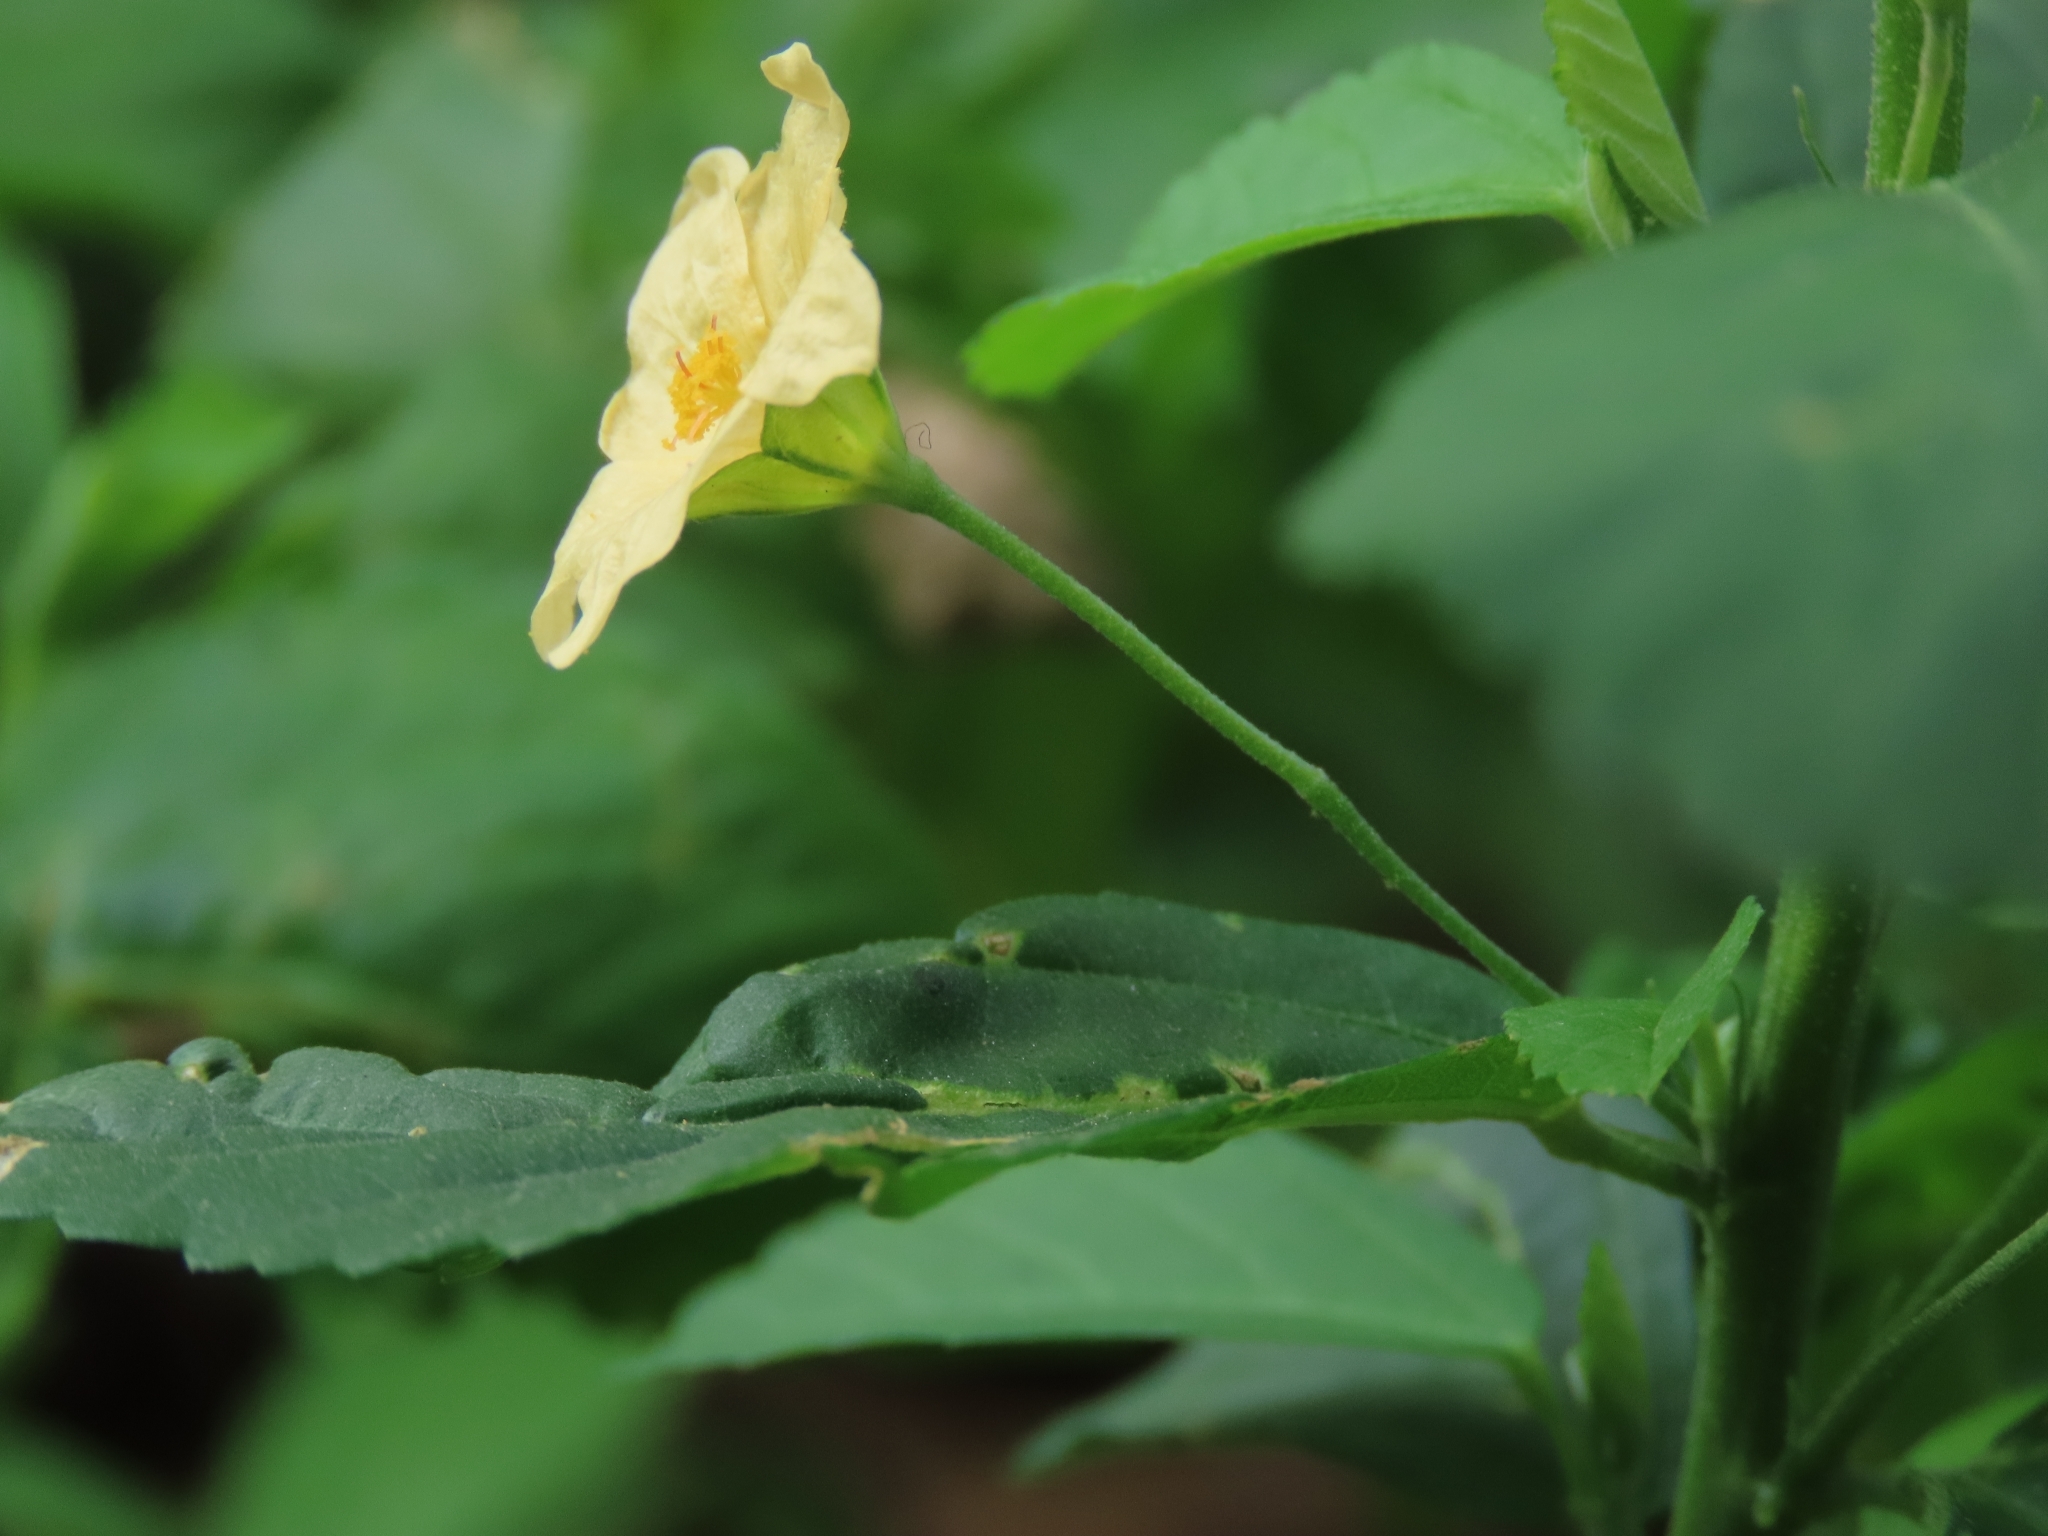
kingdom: Plantae
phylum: Tracheophyta
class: Magnoliopsida
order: Malvales
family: Malvaceae
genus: Sida
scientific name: Sida rhombifolia
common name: Queensland-hemp
